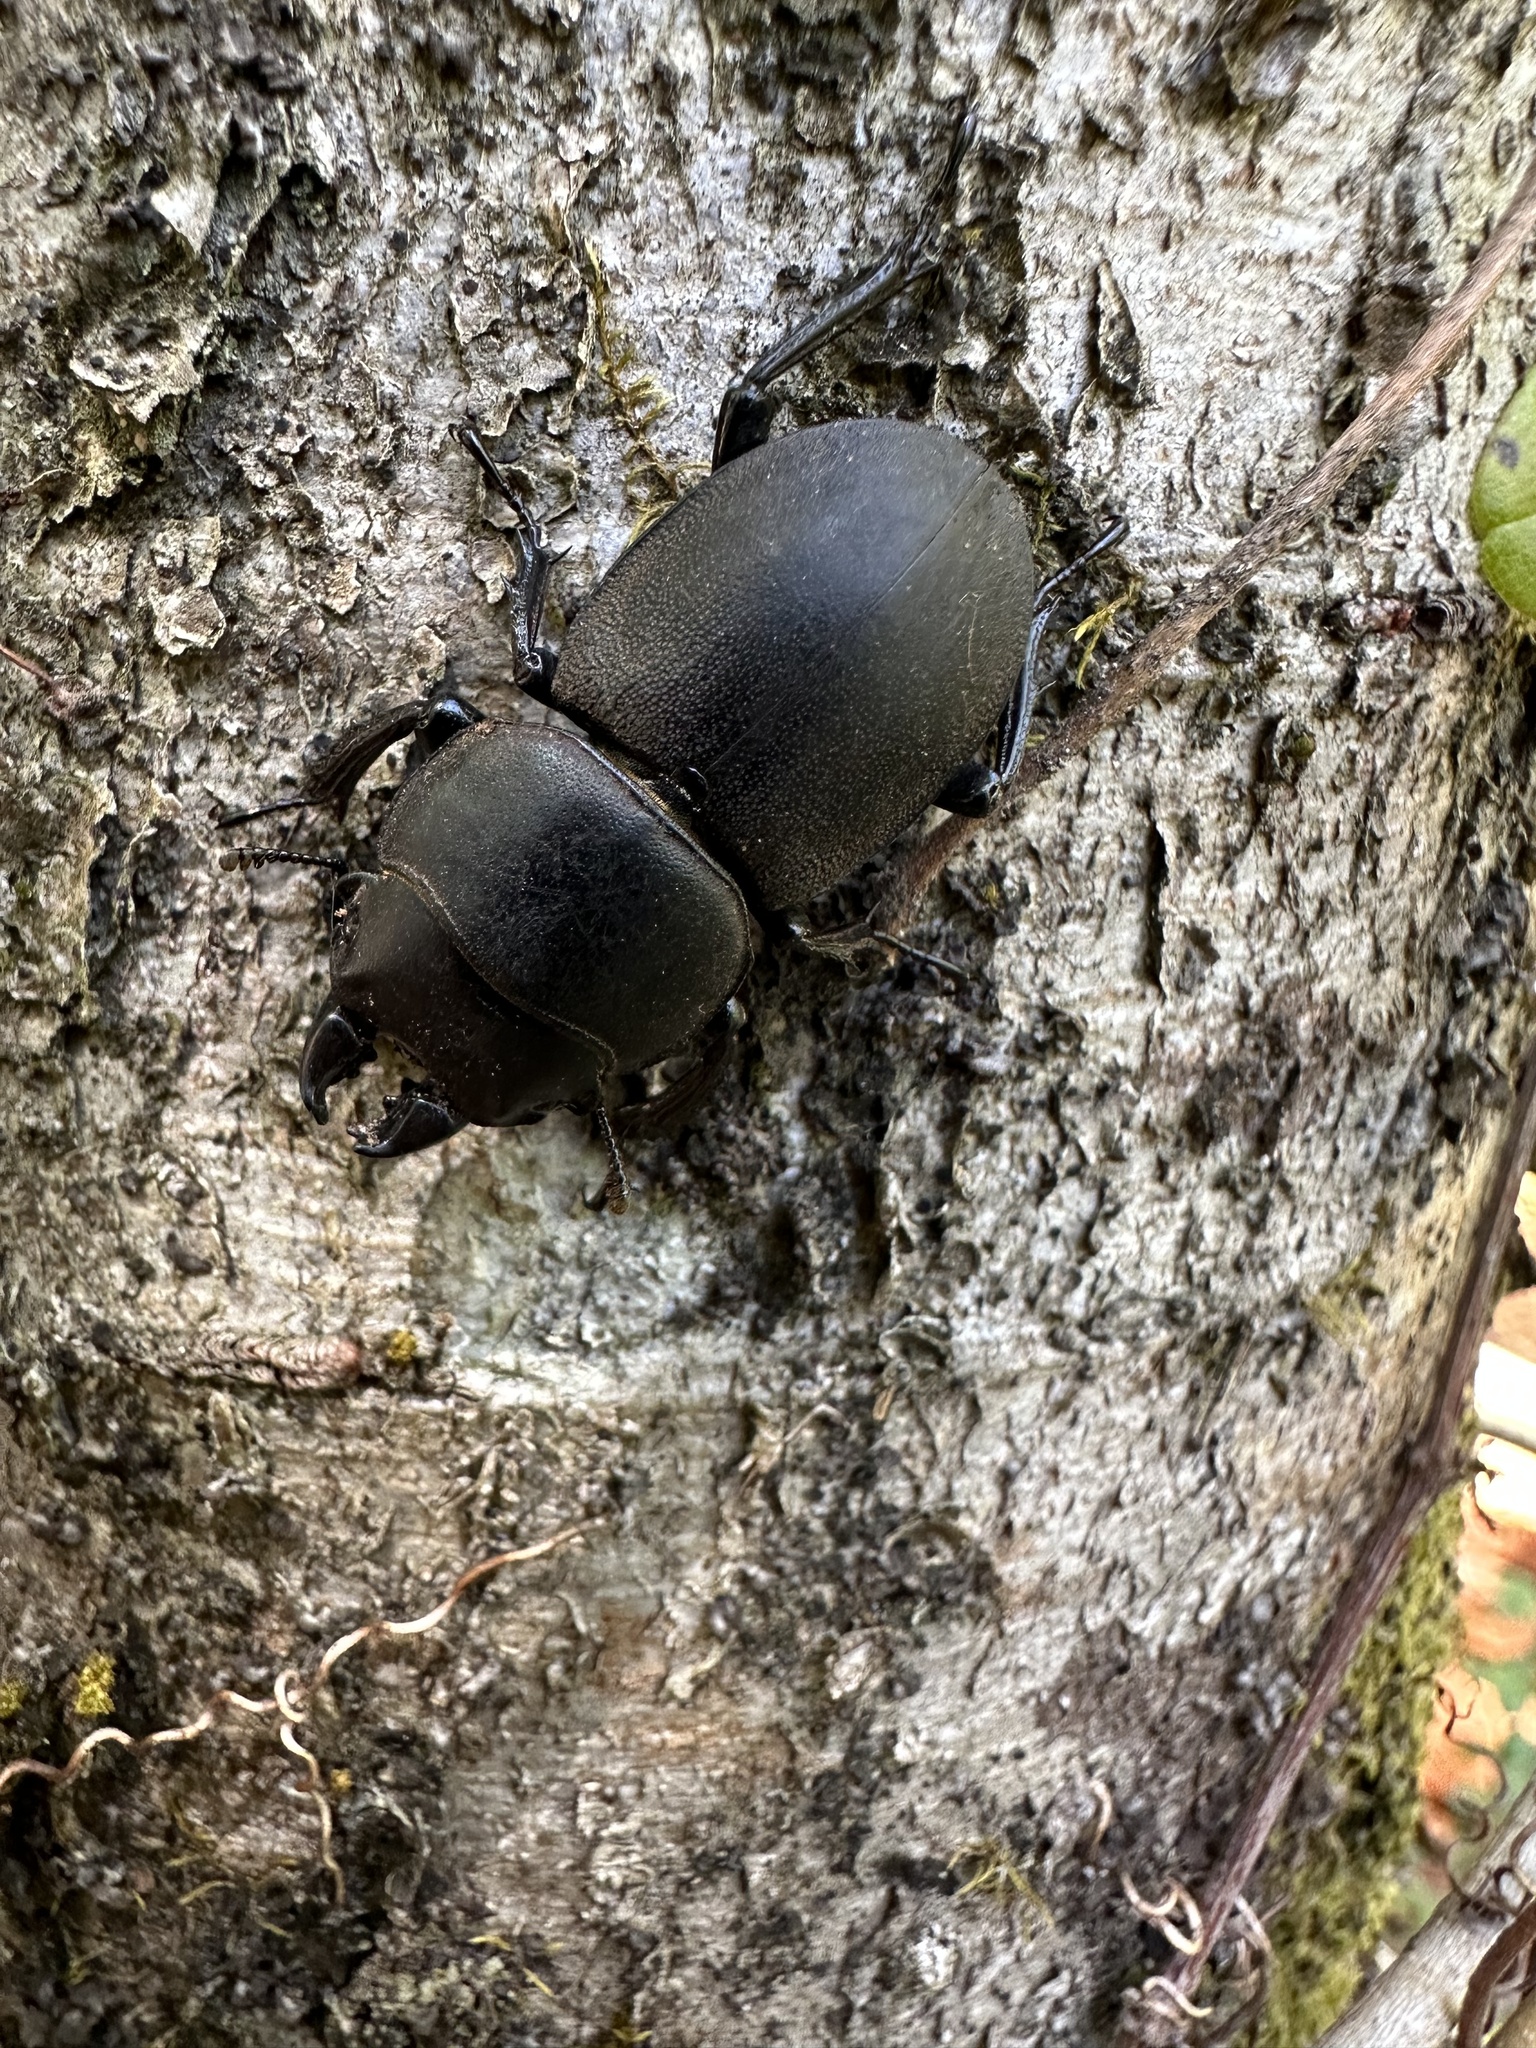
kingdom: Animalia
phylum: Arthropoda
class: Insecta
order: Coleoptera
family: Lucanidae
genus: Apterodorcus
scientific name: Apterodorcus bacchus
